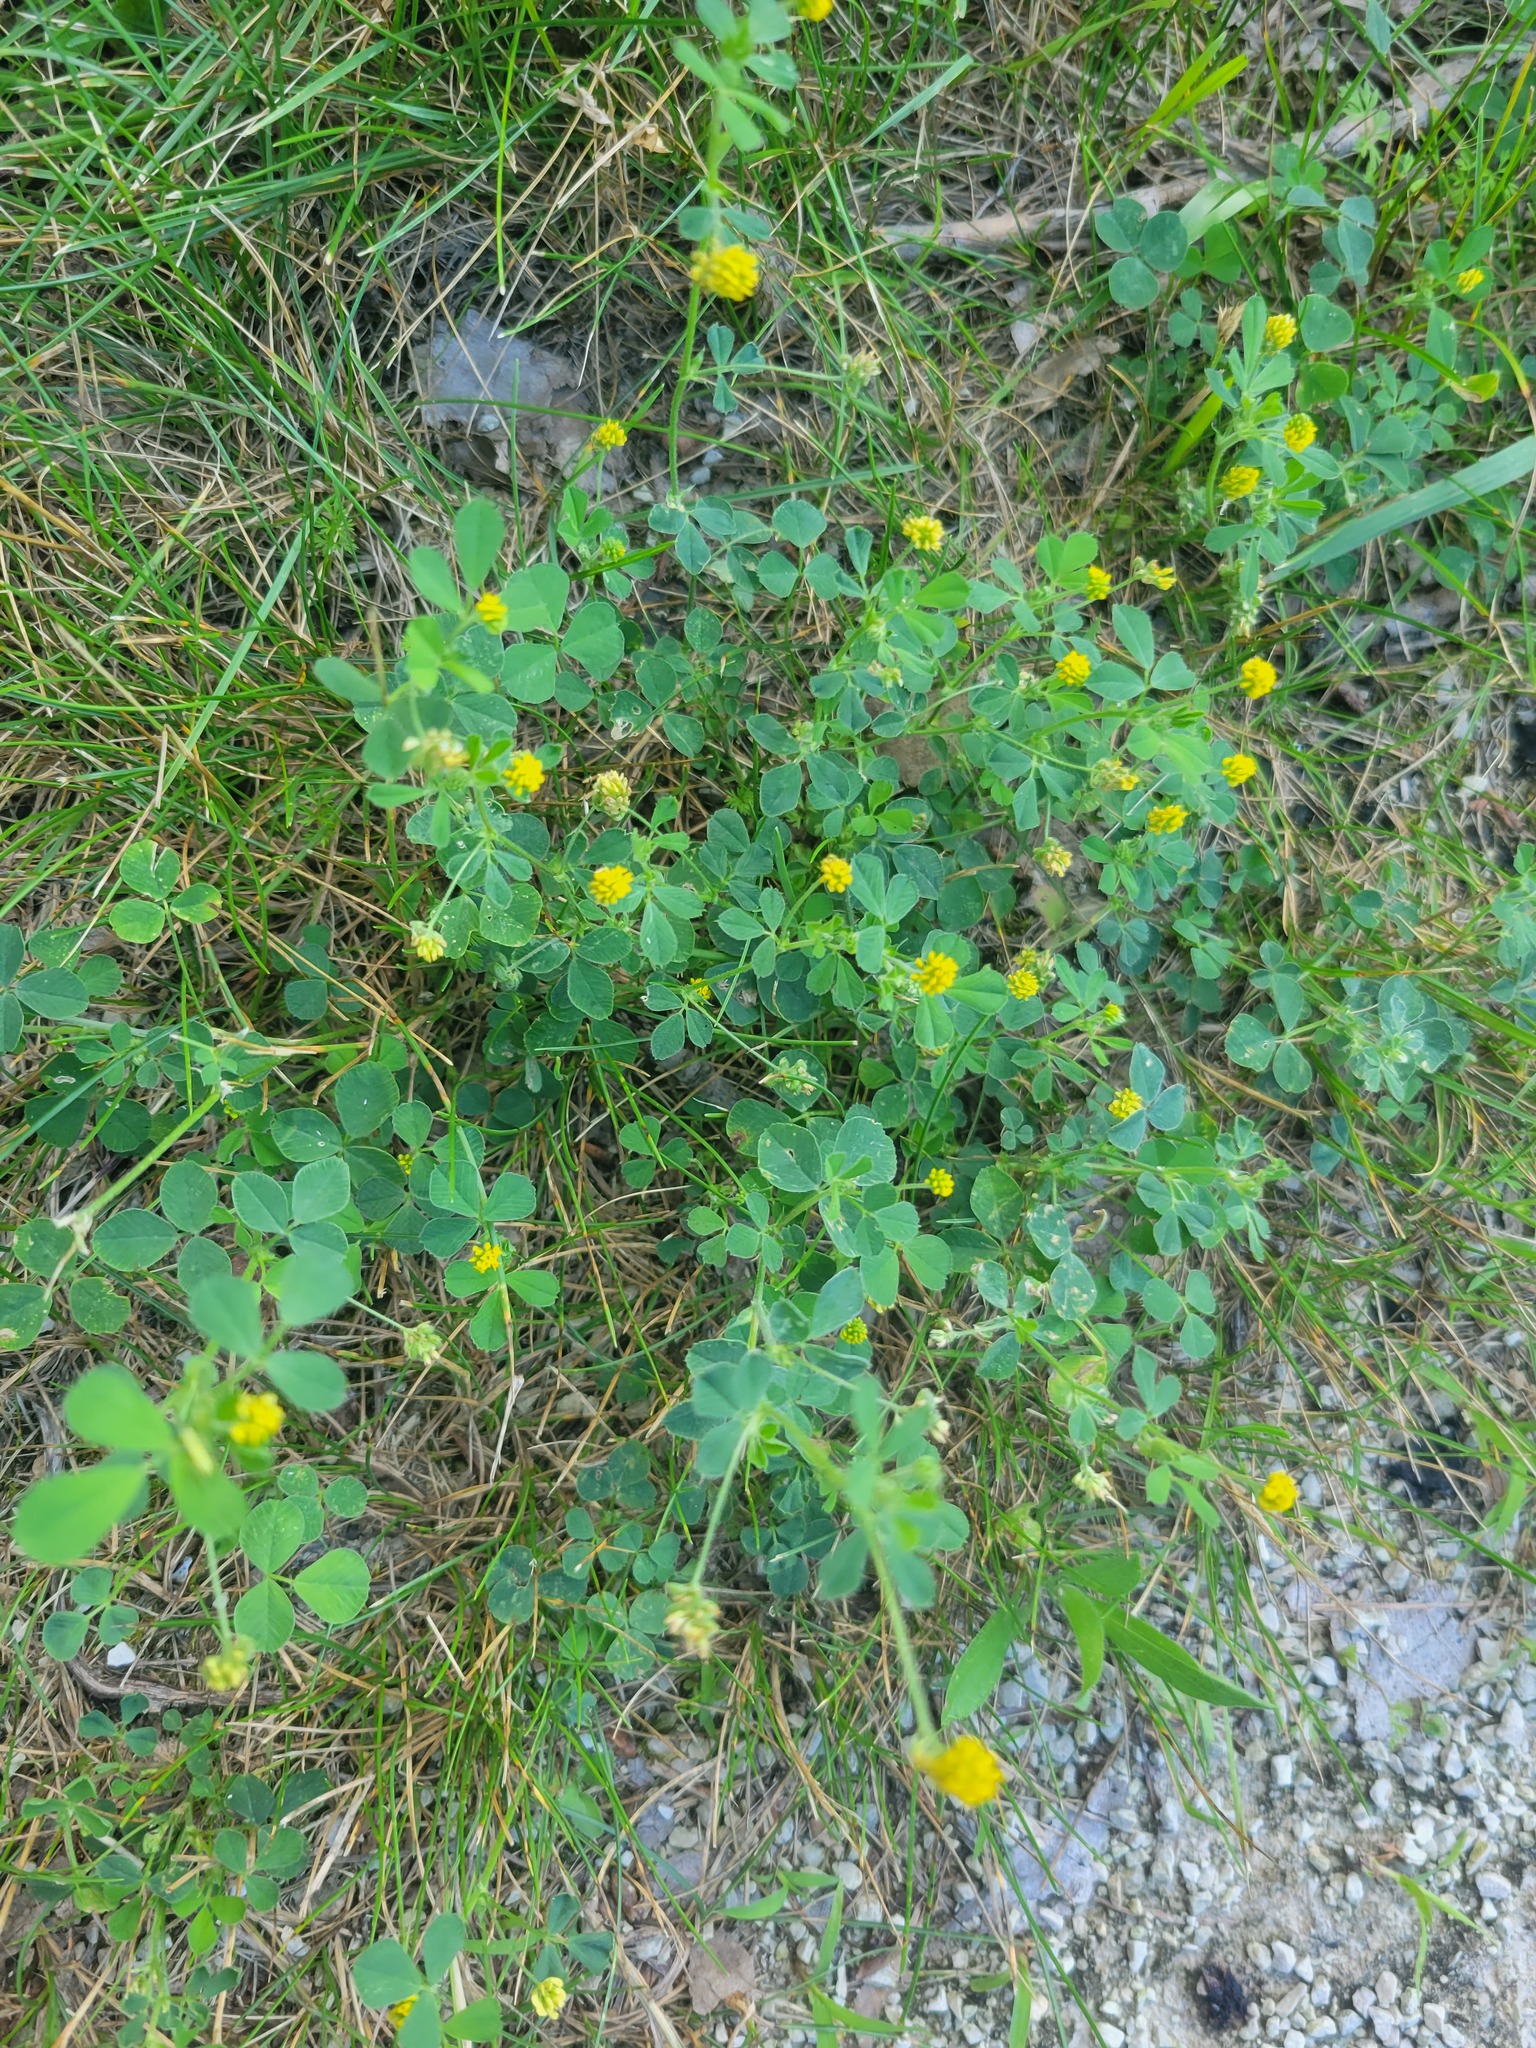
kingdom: Plantae
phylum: Tracheophyta
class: Magnoliopsida
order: Fabales
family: Fabaceae
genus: Medicago
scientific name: Medicago lupulina
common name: Black medick
